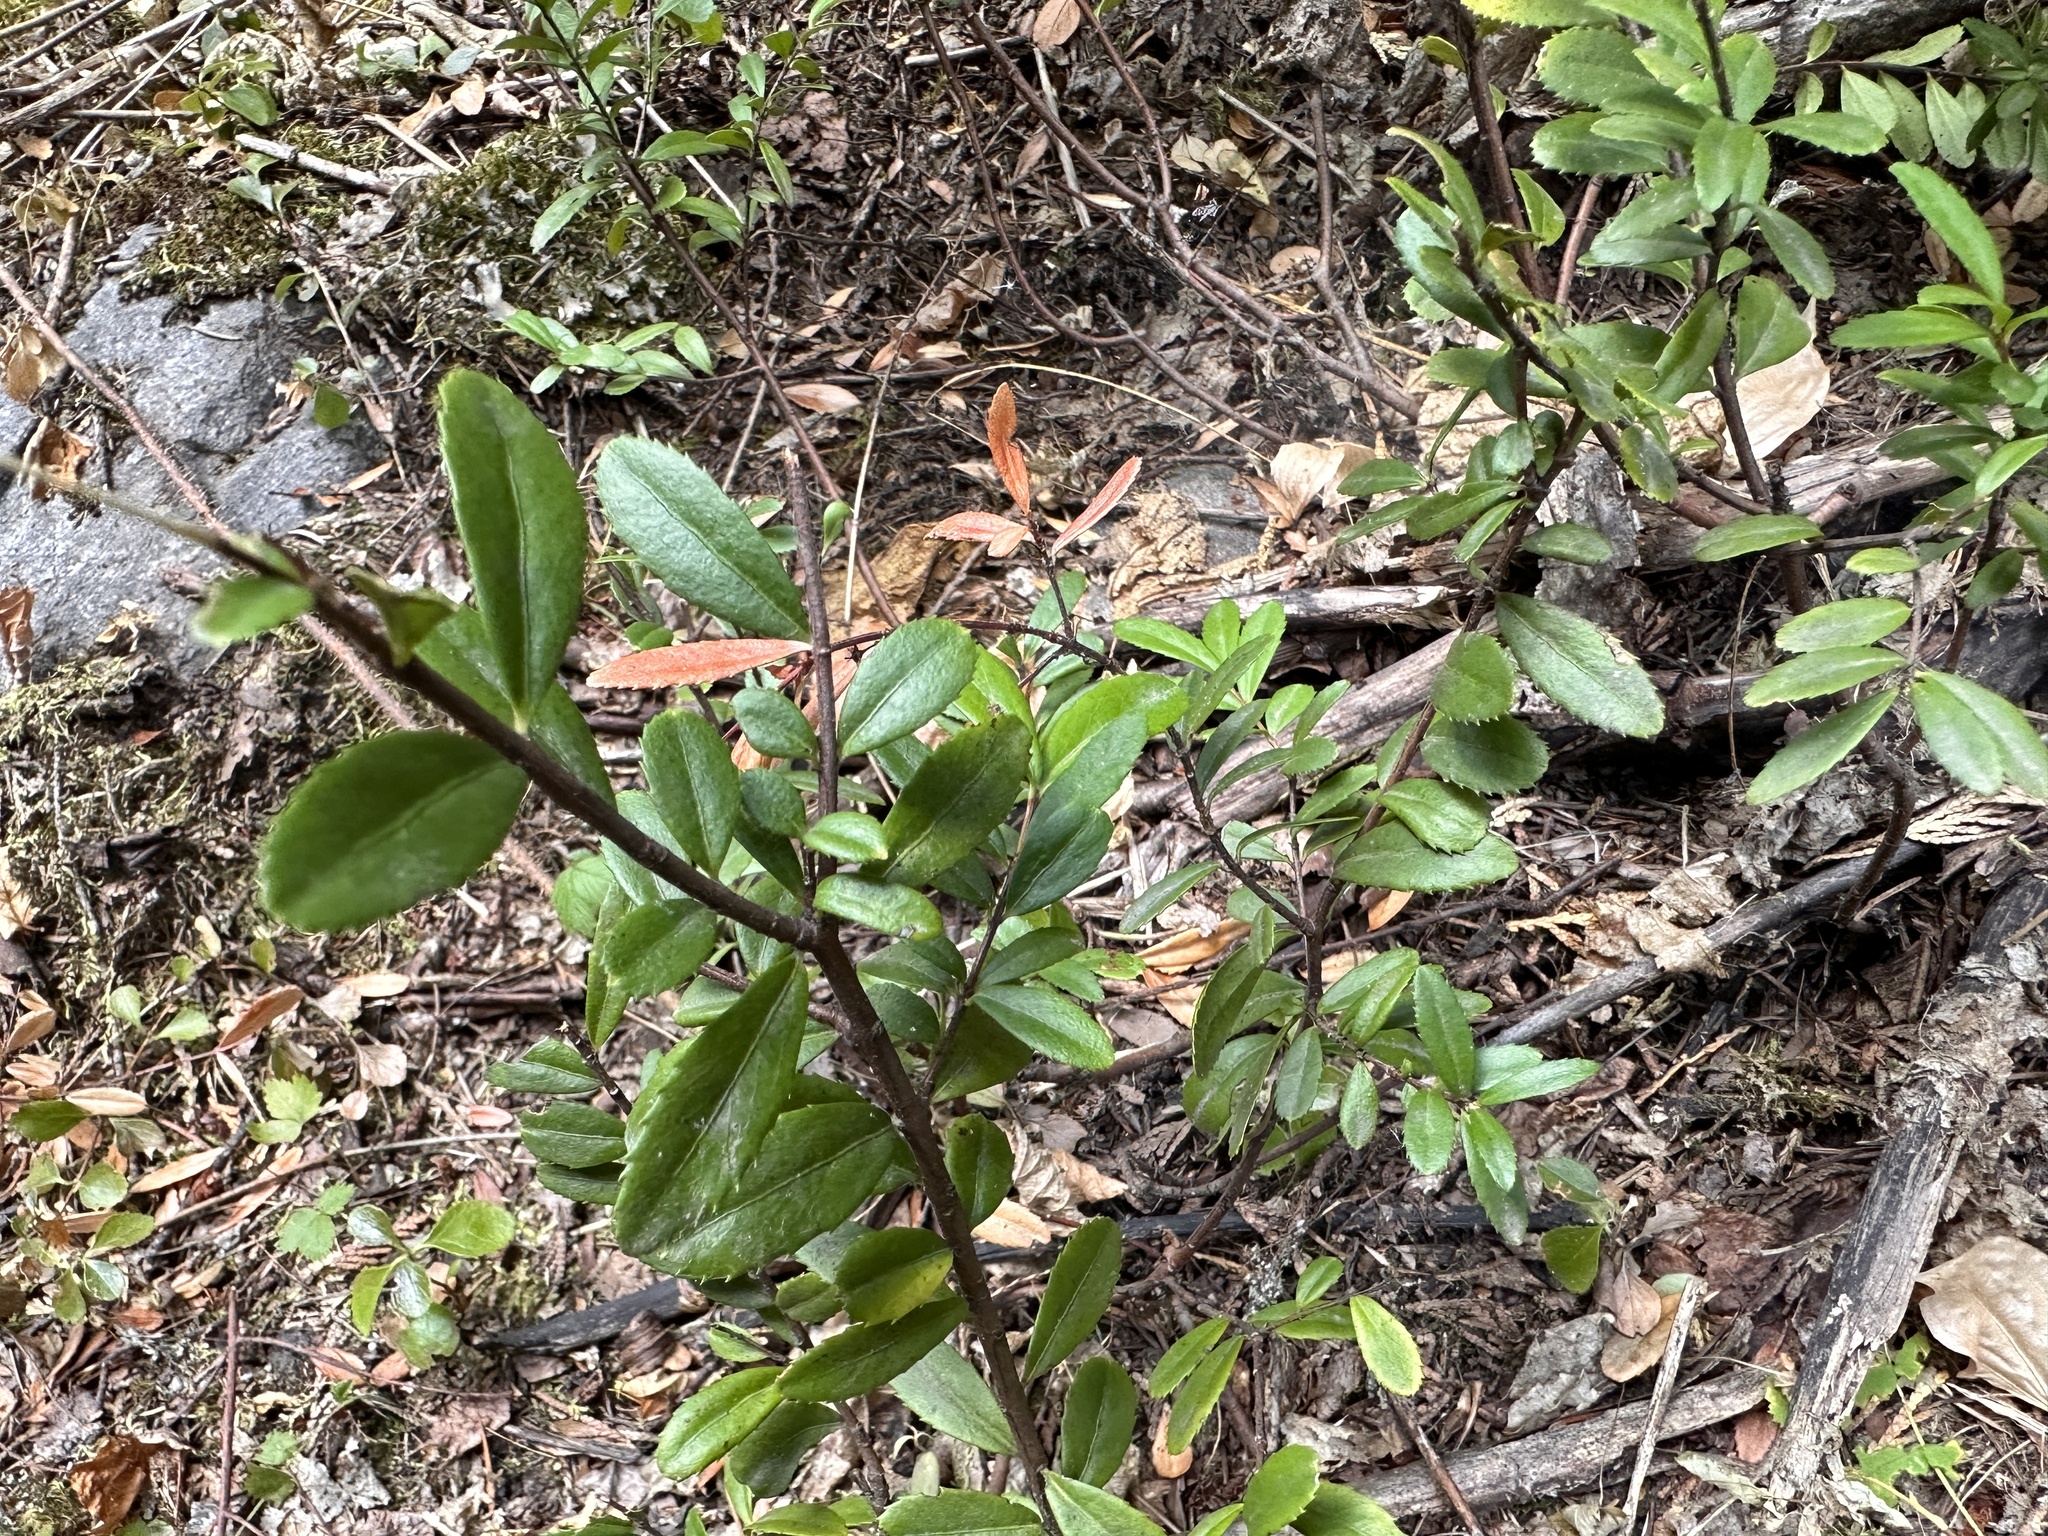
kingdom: Plantae
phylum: Tracheophyta
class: Magnoliopsida
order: Celastrales
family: Celastraceae
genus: Paxistima
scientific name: Paxistima myrsinites
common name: Mountain-lover
